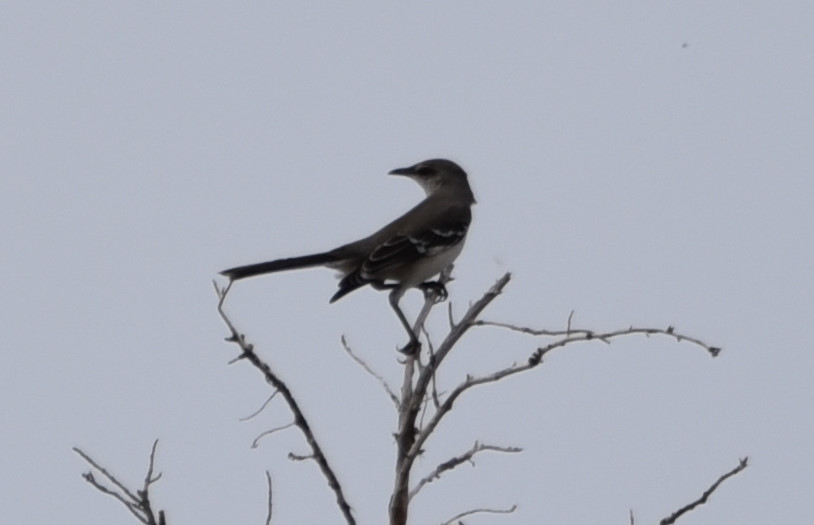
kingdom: Animalia
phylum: Chordata
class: Aves
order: Passeriformes
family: Mimidae
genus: Mimus
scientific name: Mimus polyglottos
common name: Northern mockingbird
